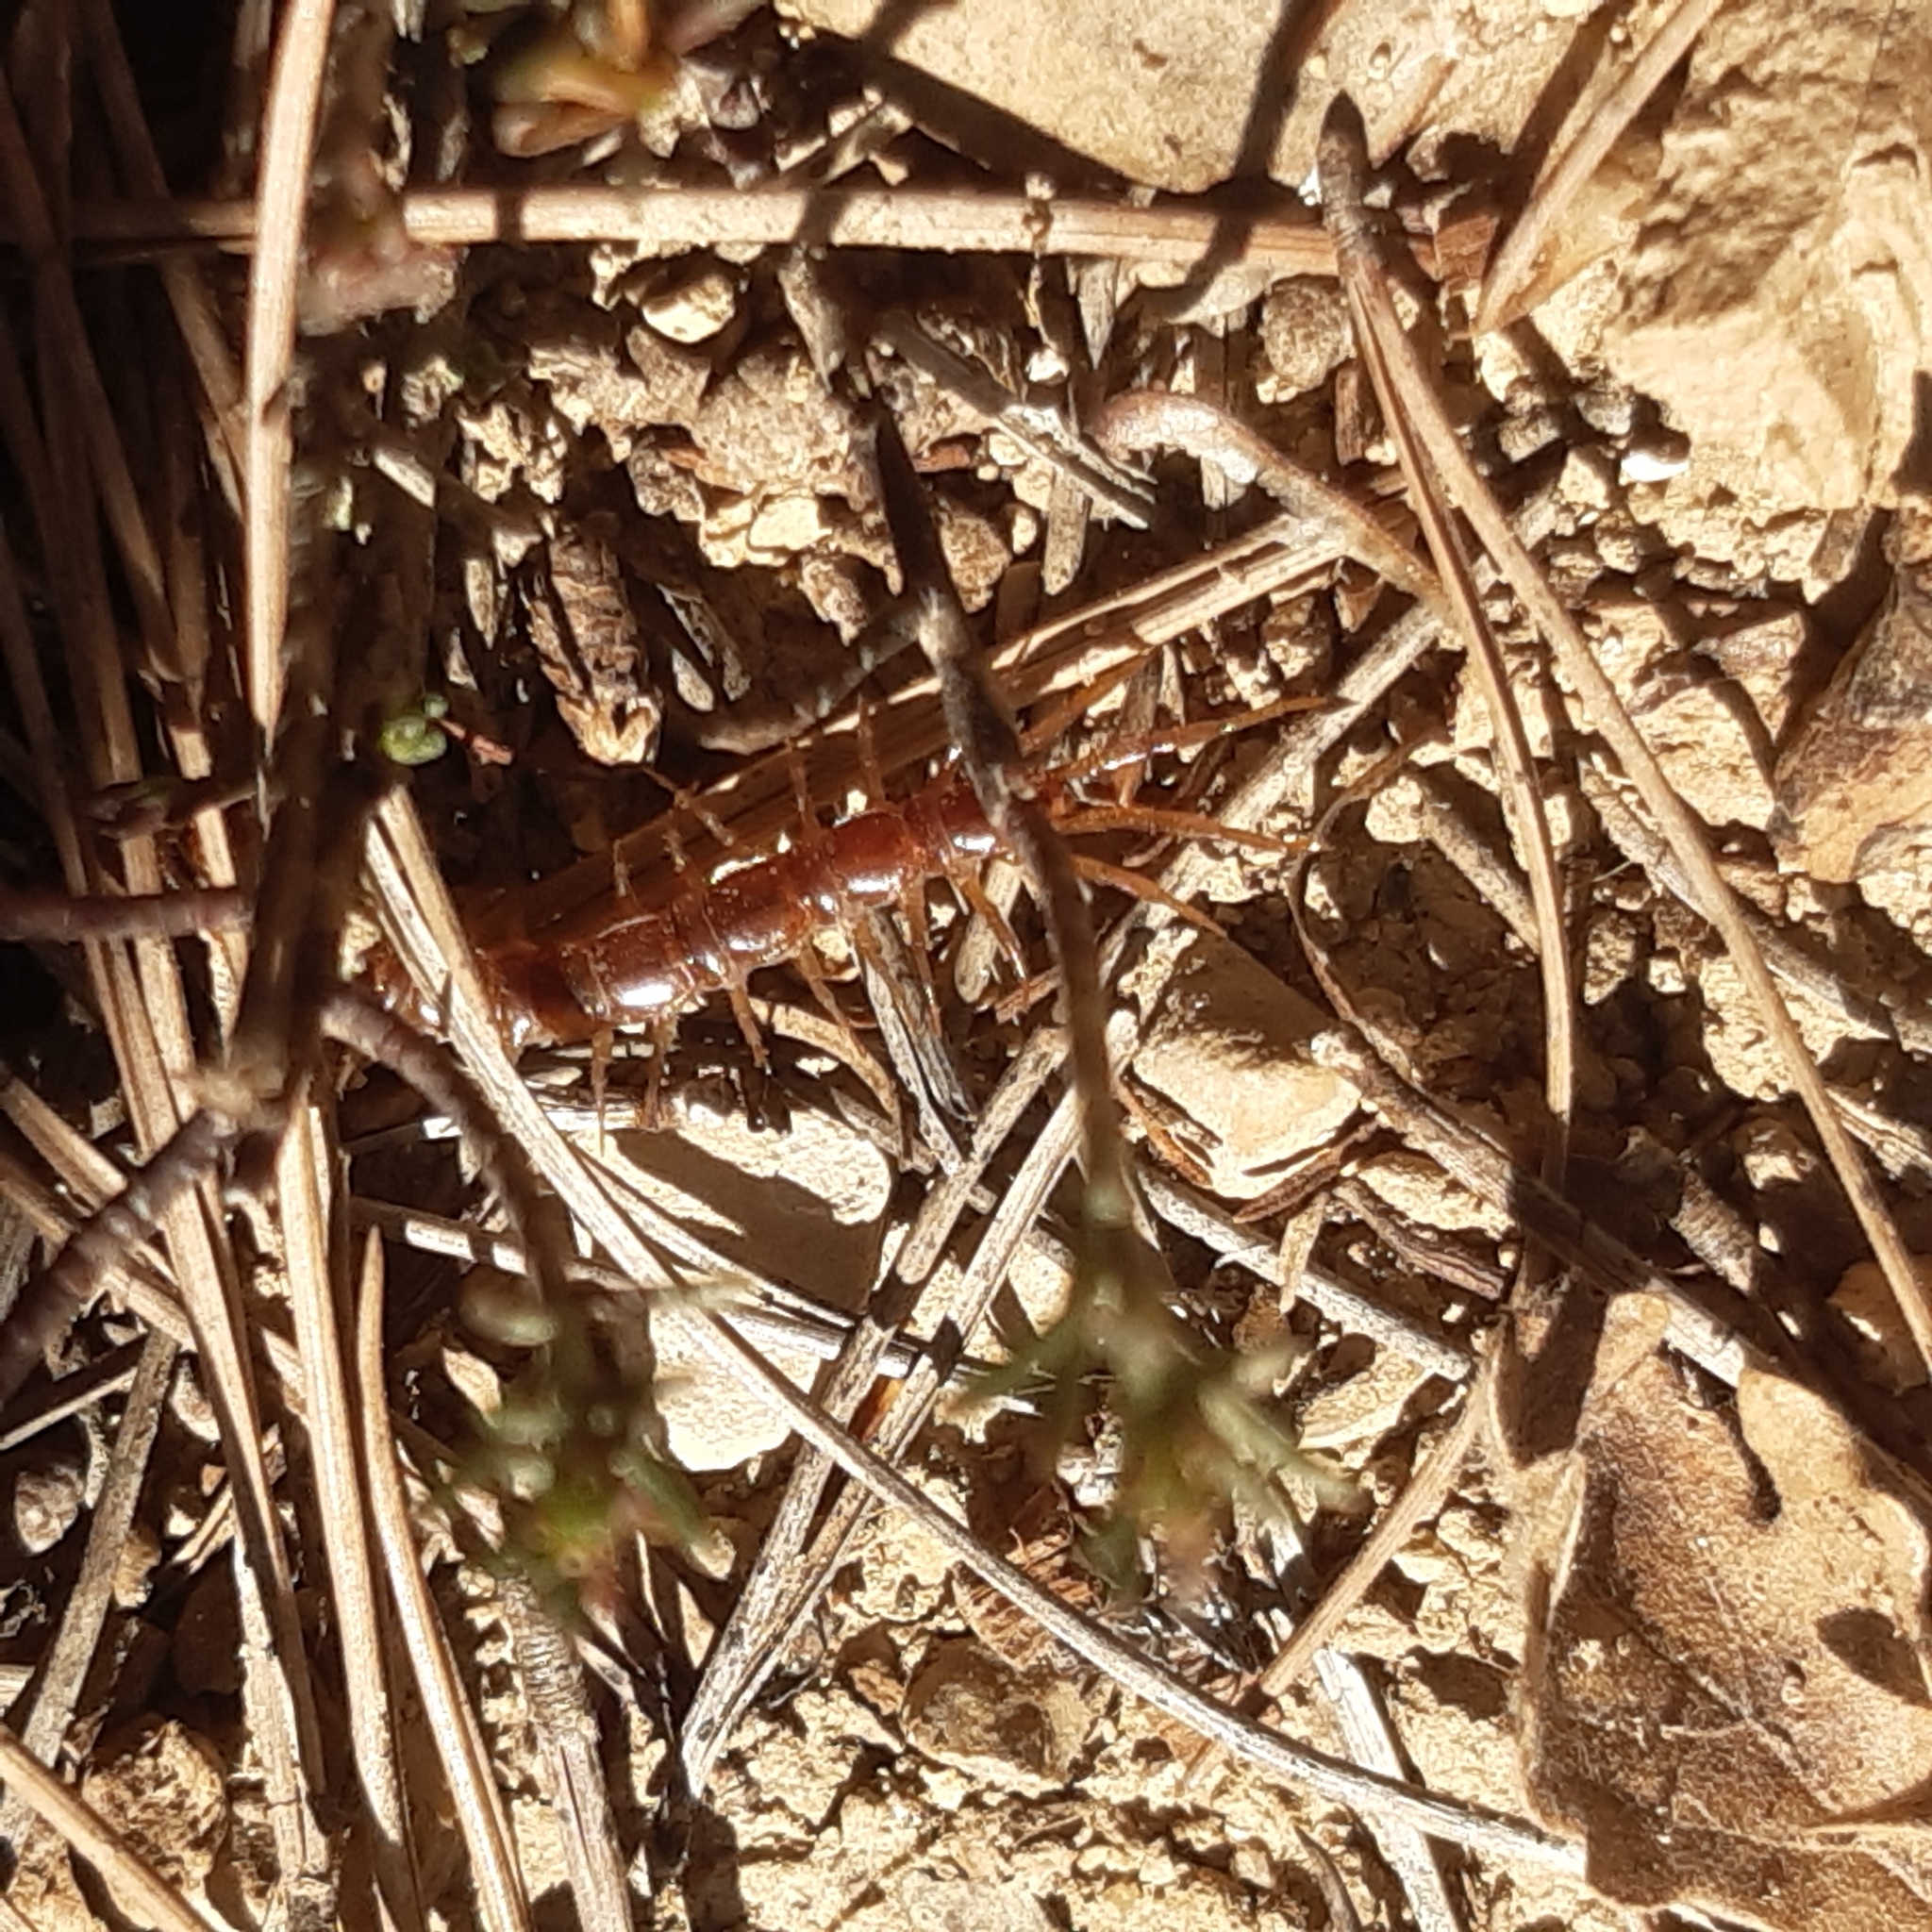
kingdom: Animalia
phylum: Arthropoda
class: Chilopoda
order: Lithobiomorpha
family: Lithobiidae
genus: Lithobius
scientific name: Lithobius pyrenaicus
